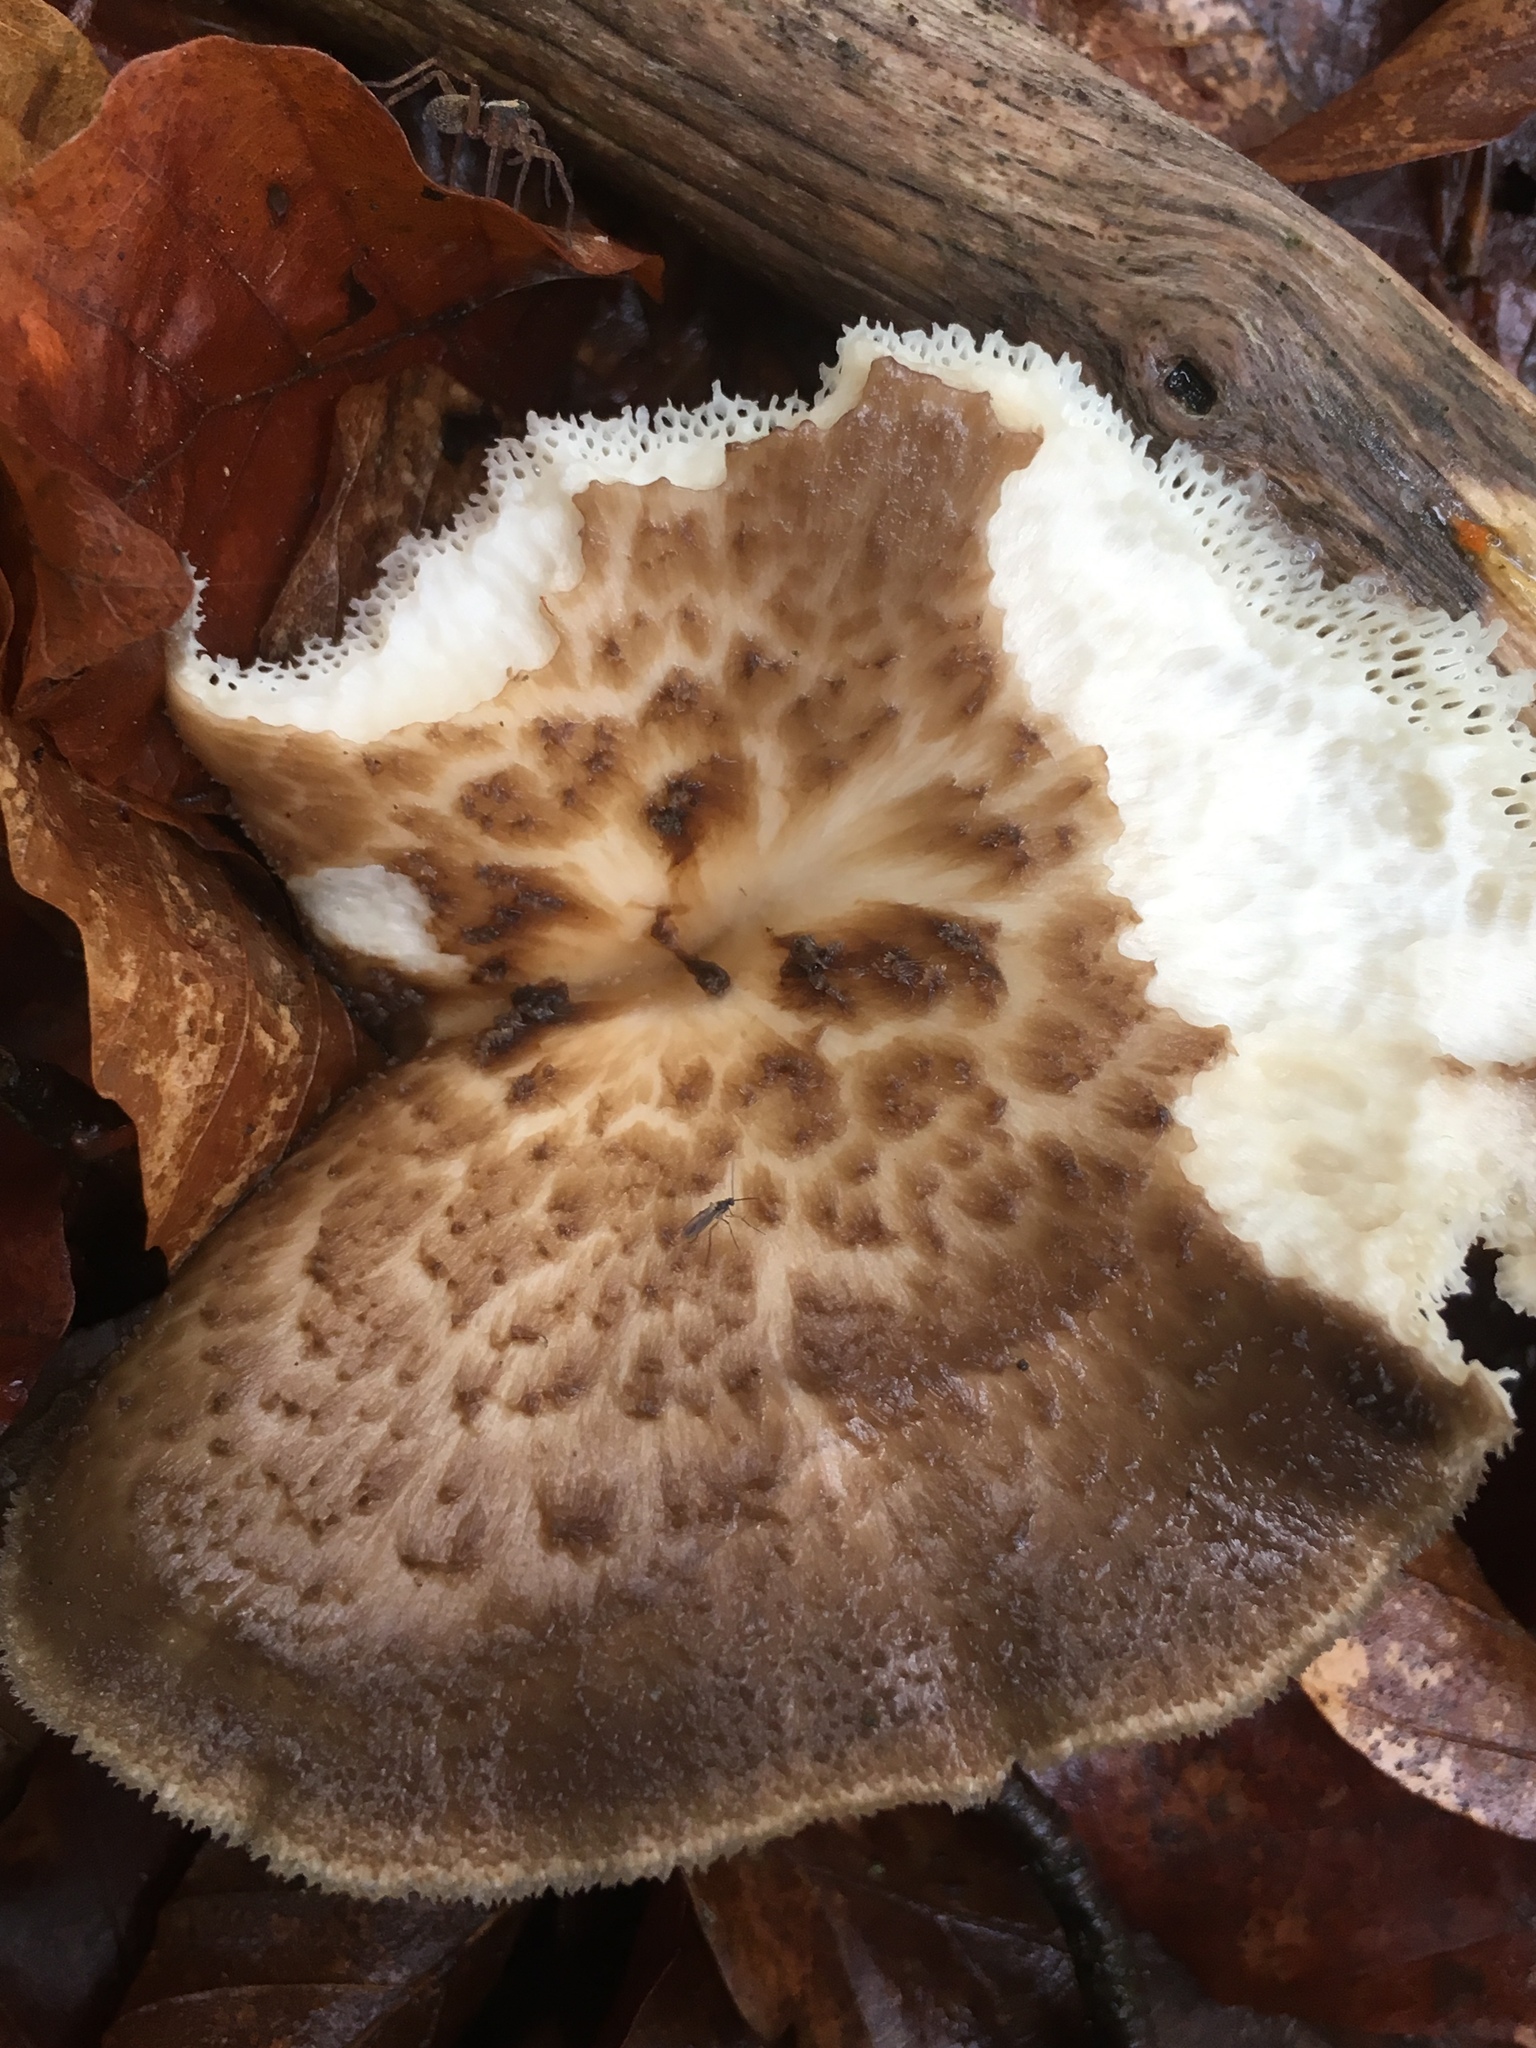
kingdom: Fungi
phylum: Basidiomycota
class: Agaricomycetes
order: Polyporales
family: Polyporaceae
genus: Polyporus
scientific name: Polyporus tuberaster
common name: Tuberous polypore
